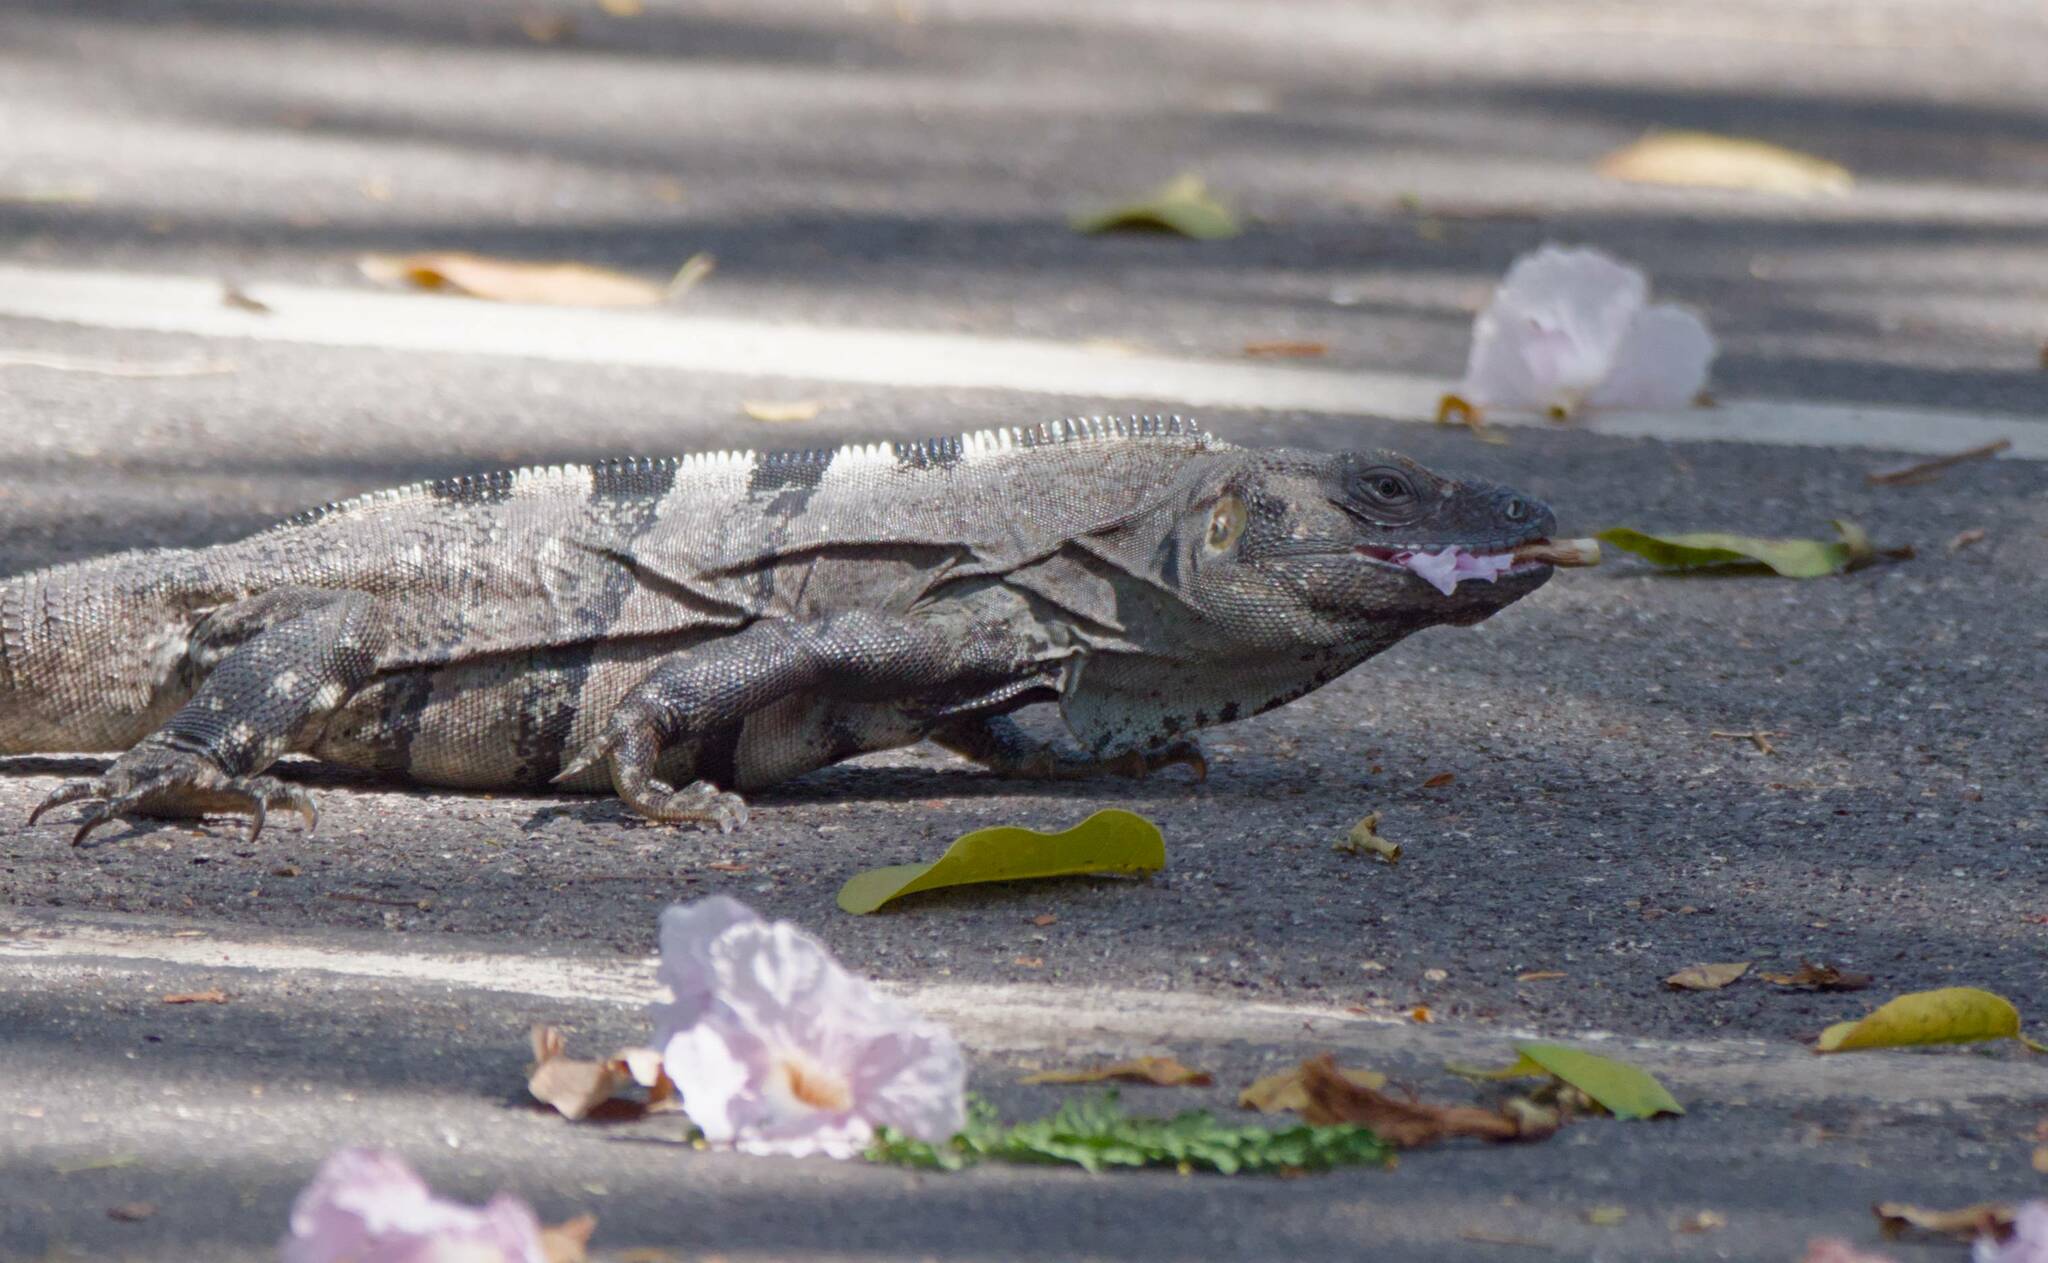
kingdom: Animalia
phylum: Chordata
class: Squamata
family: Iguanidae
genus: Ctenosaura
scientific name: Ctenosaura similis
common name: Black spiny-tailed iguana
